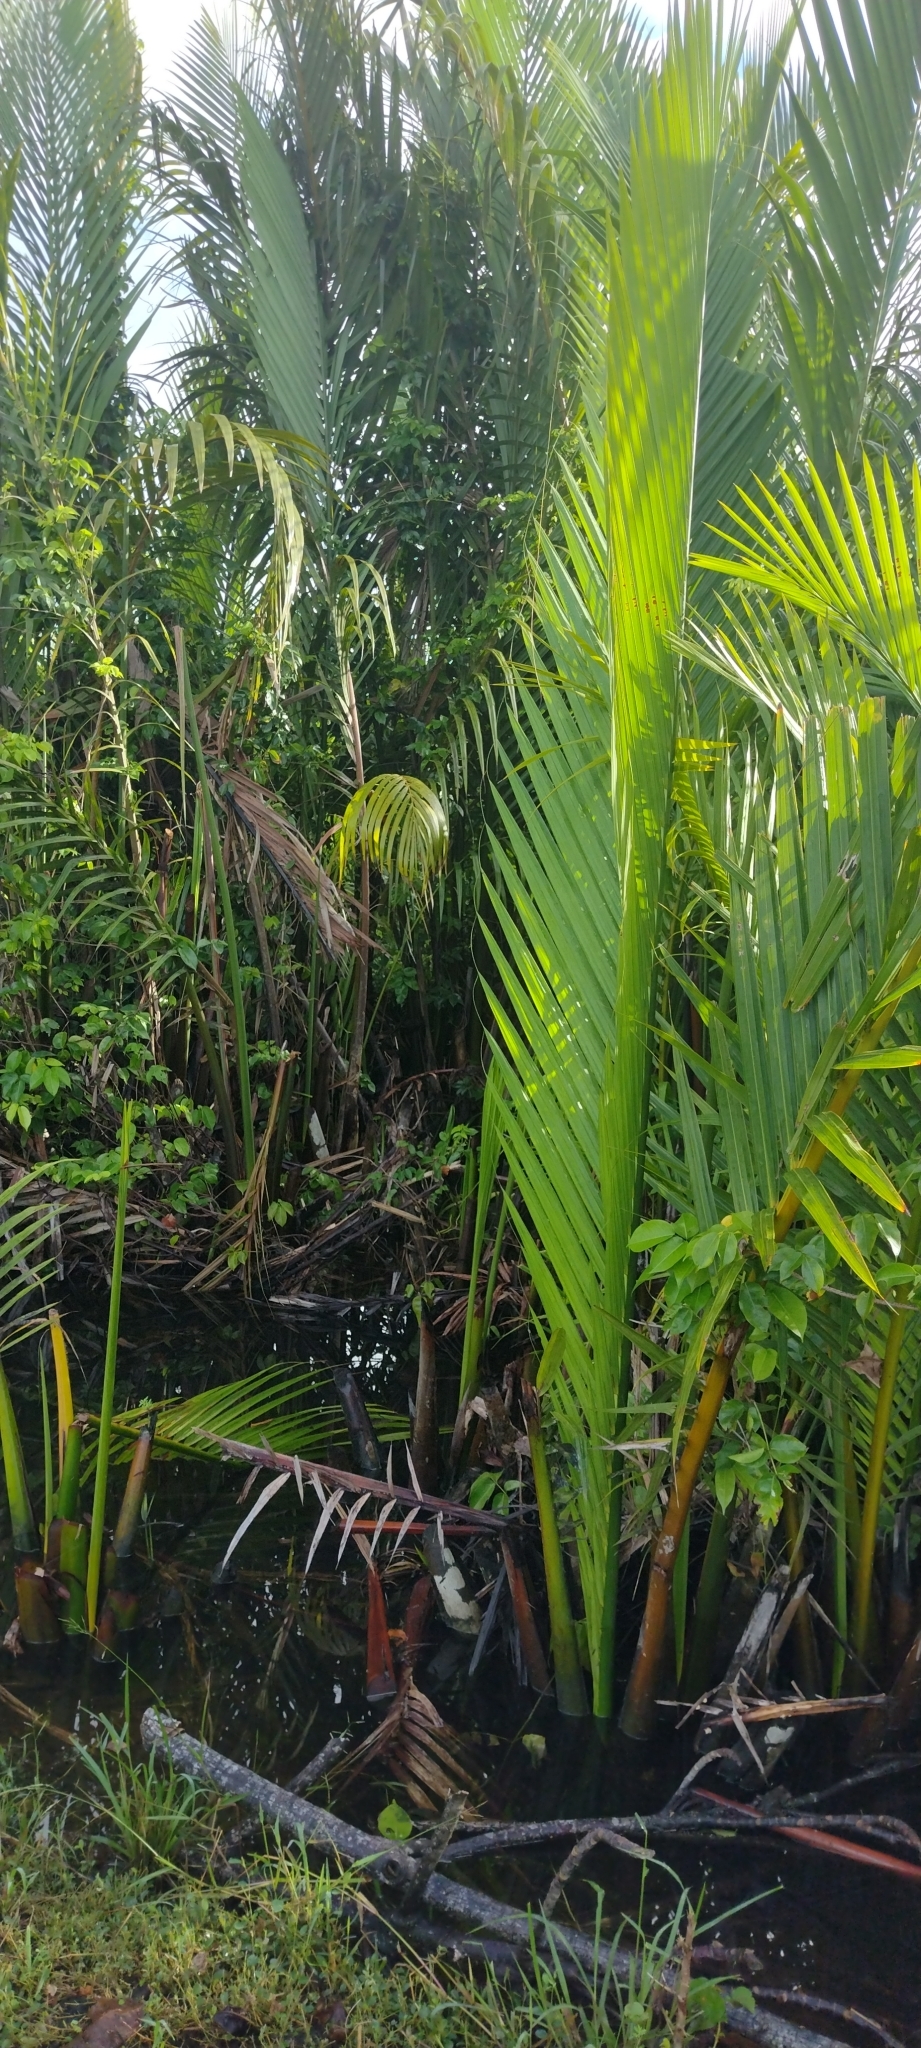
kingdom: Plantae
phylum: Tracheophyta
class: Liliopsida
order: Arecales
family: Arecaceae
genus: Nypa
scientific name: Nypa fruticans
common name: Mangrove palm
